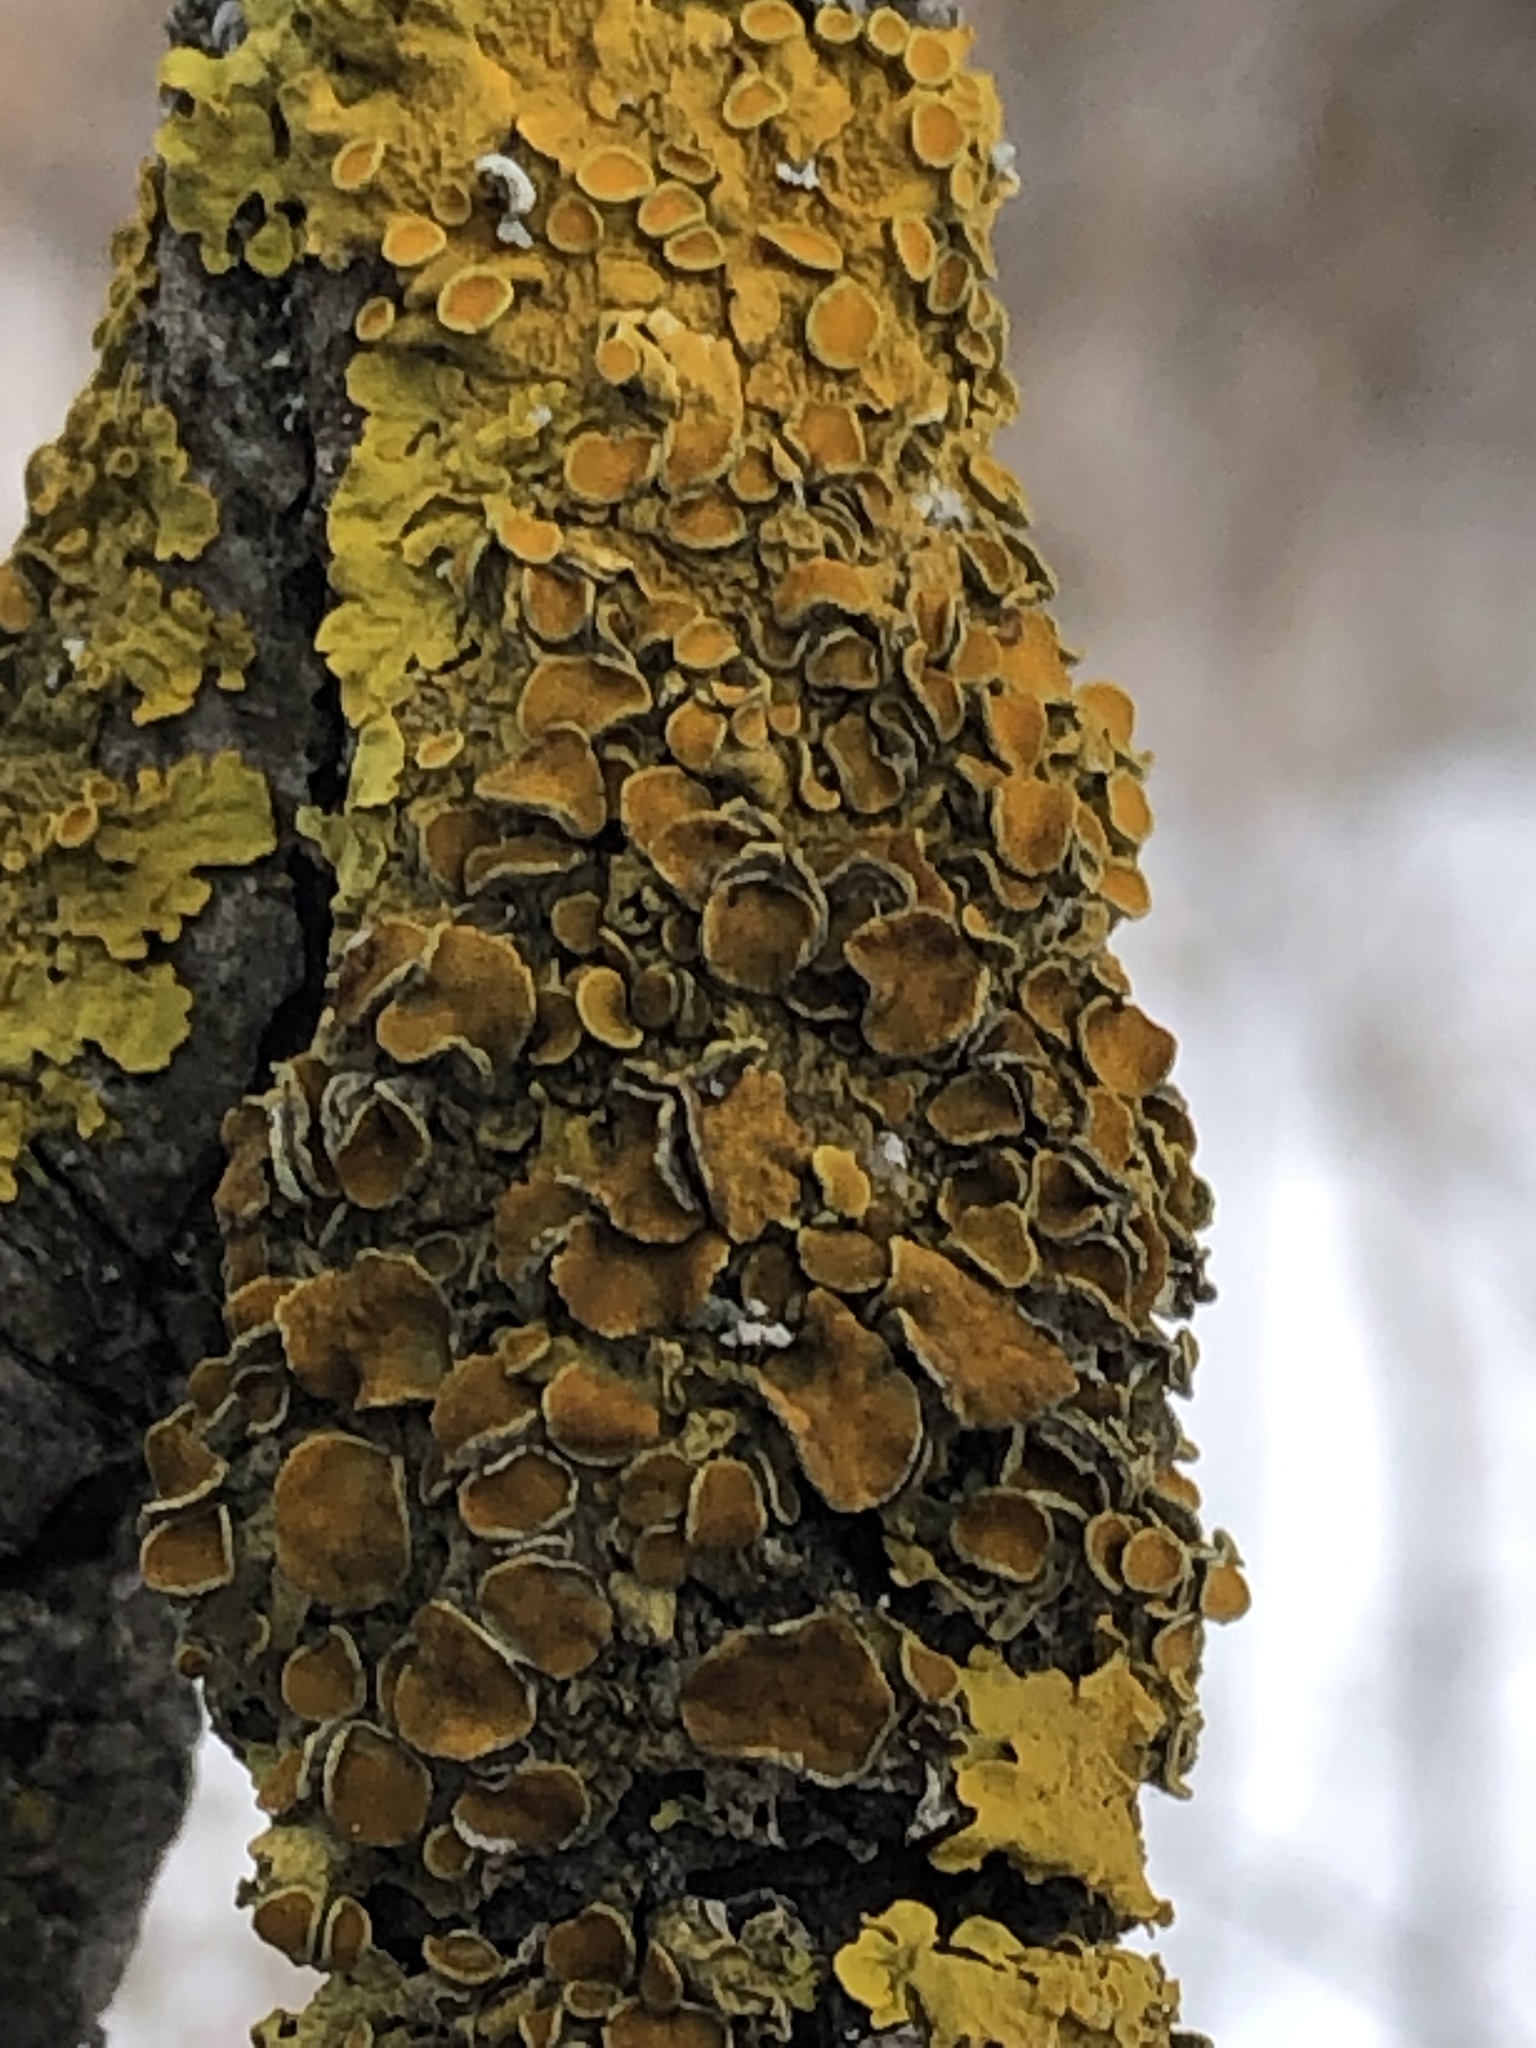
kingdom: Fungi
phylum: Ascomycota
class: Lecanoromycetes
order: Teloschistales
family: Teloschistaceae
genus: Xanthoria
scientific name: Xanthoria parietina
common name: Common orange lichen
